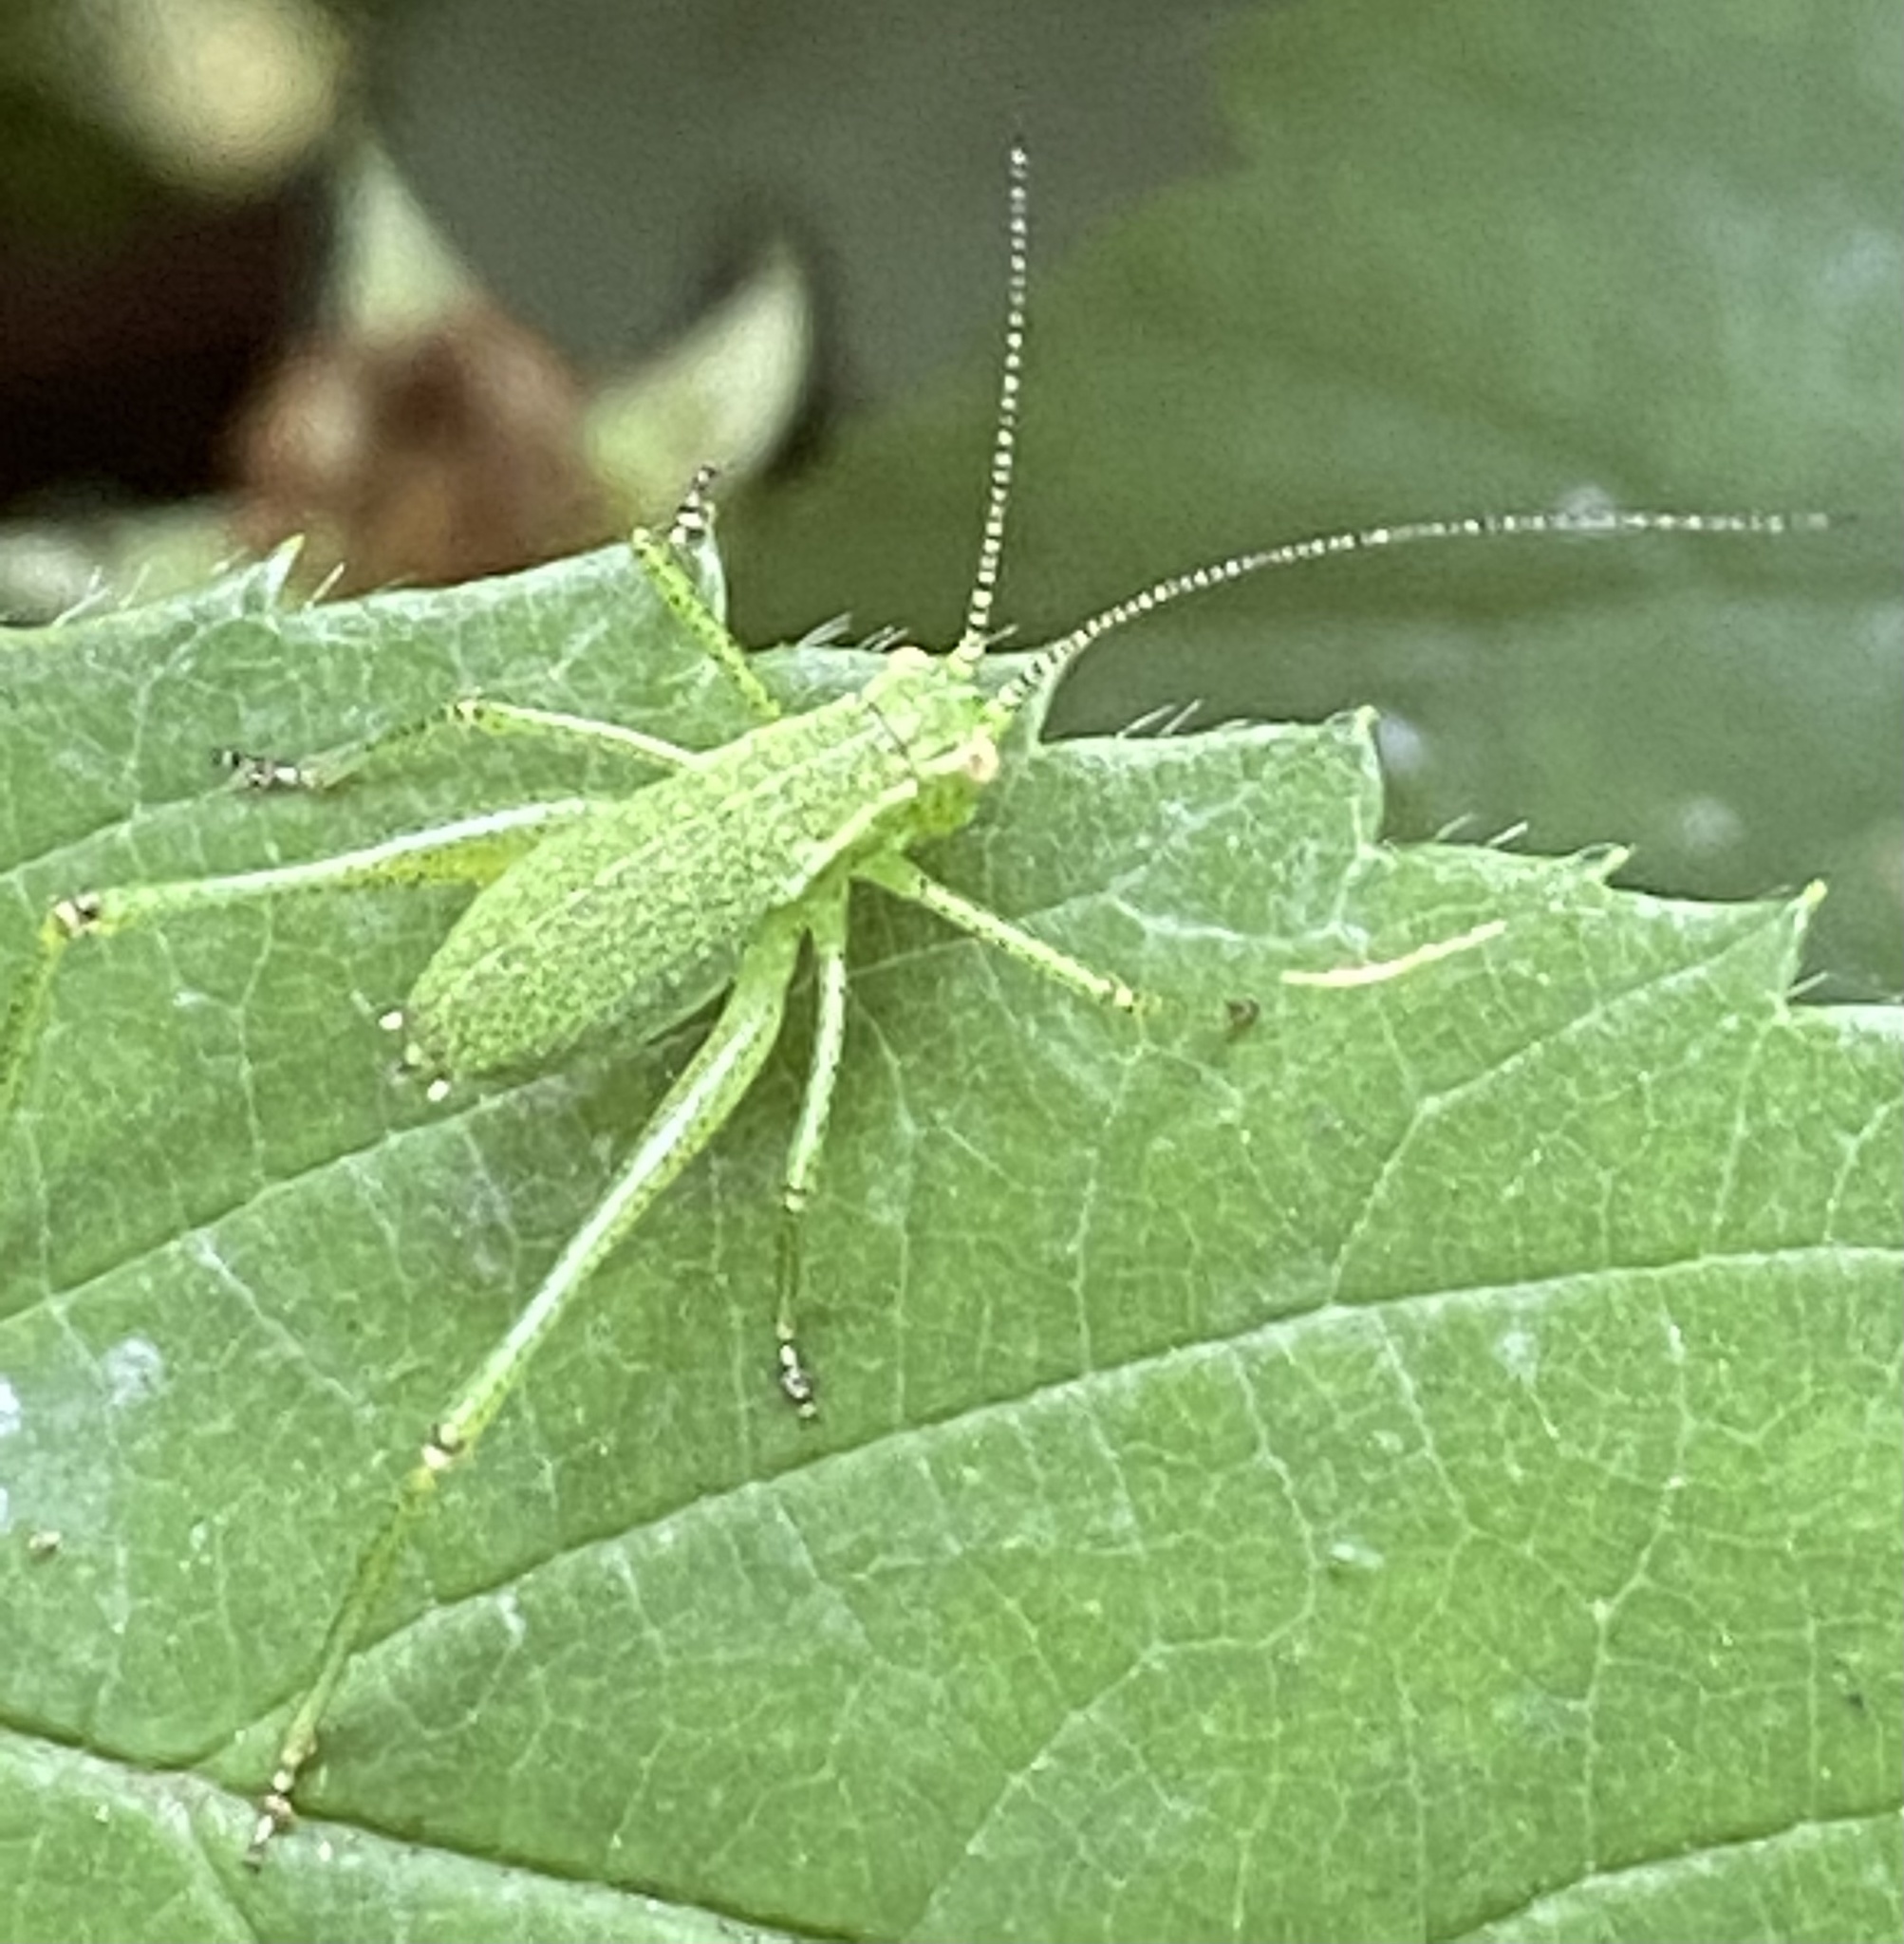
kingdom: Animalia
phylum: Arthropoda
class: Insecta
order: Orthoptera
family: Tettigoniidae
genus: Leptophyes
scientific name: Leptophyes punctatissima
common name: Speckled bush-cricket
